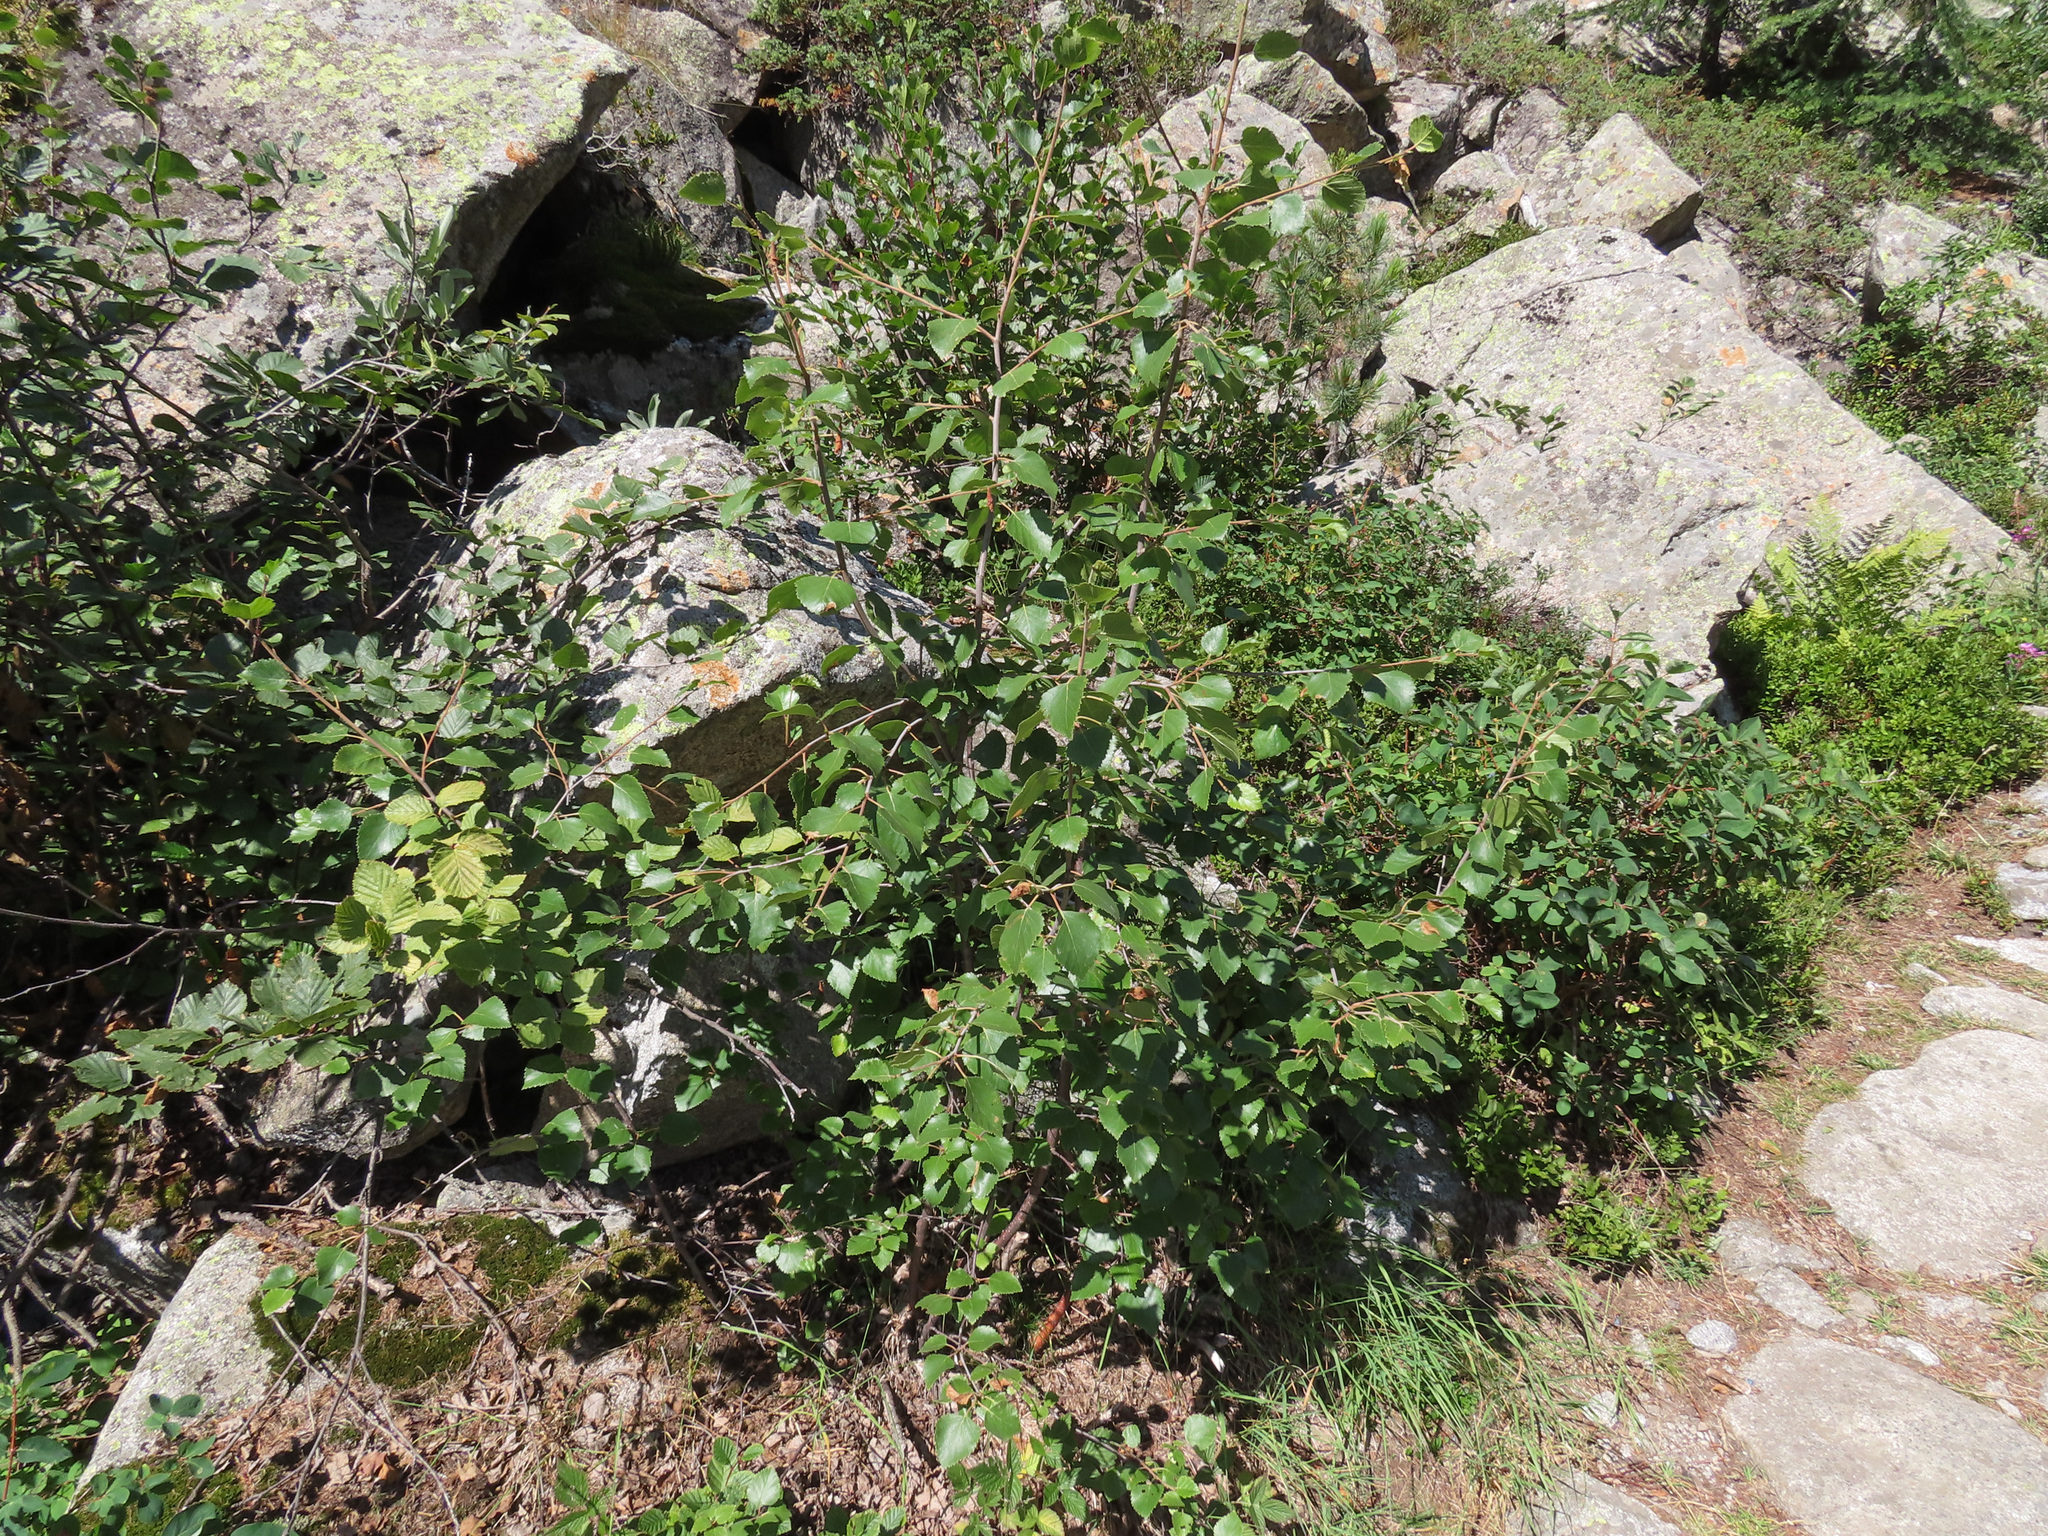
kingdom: Plantae
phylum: Tracheophyta
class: Magnoliopsida
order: Fagales
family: Betulaceae
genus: Betula
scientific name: Betula pendula
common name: Silver birch
